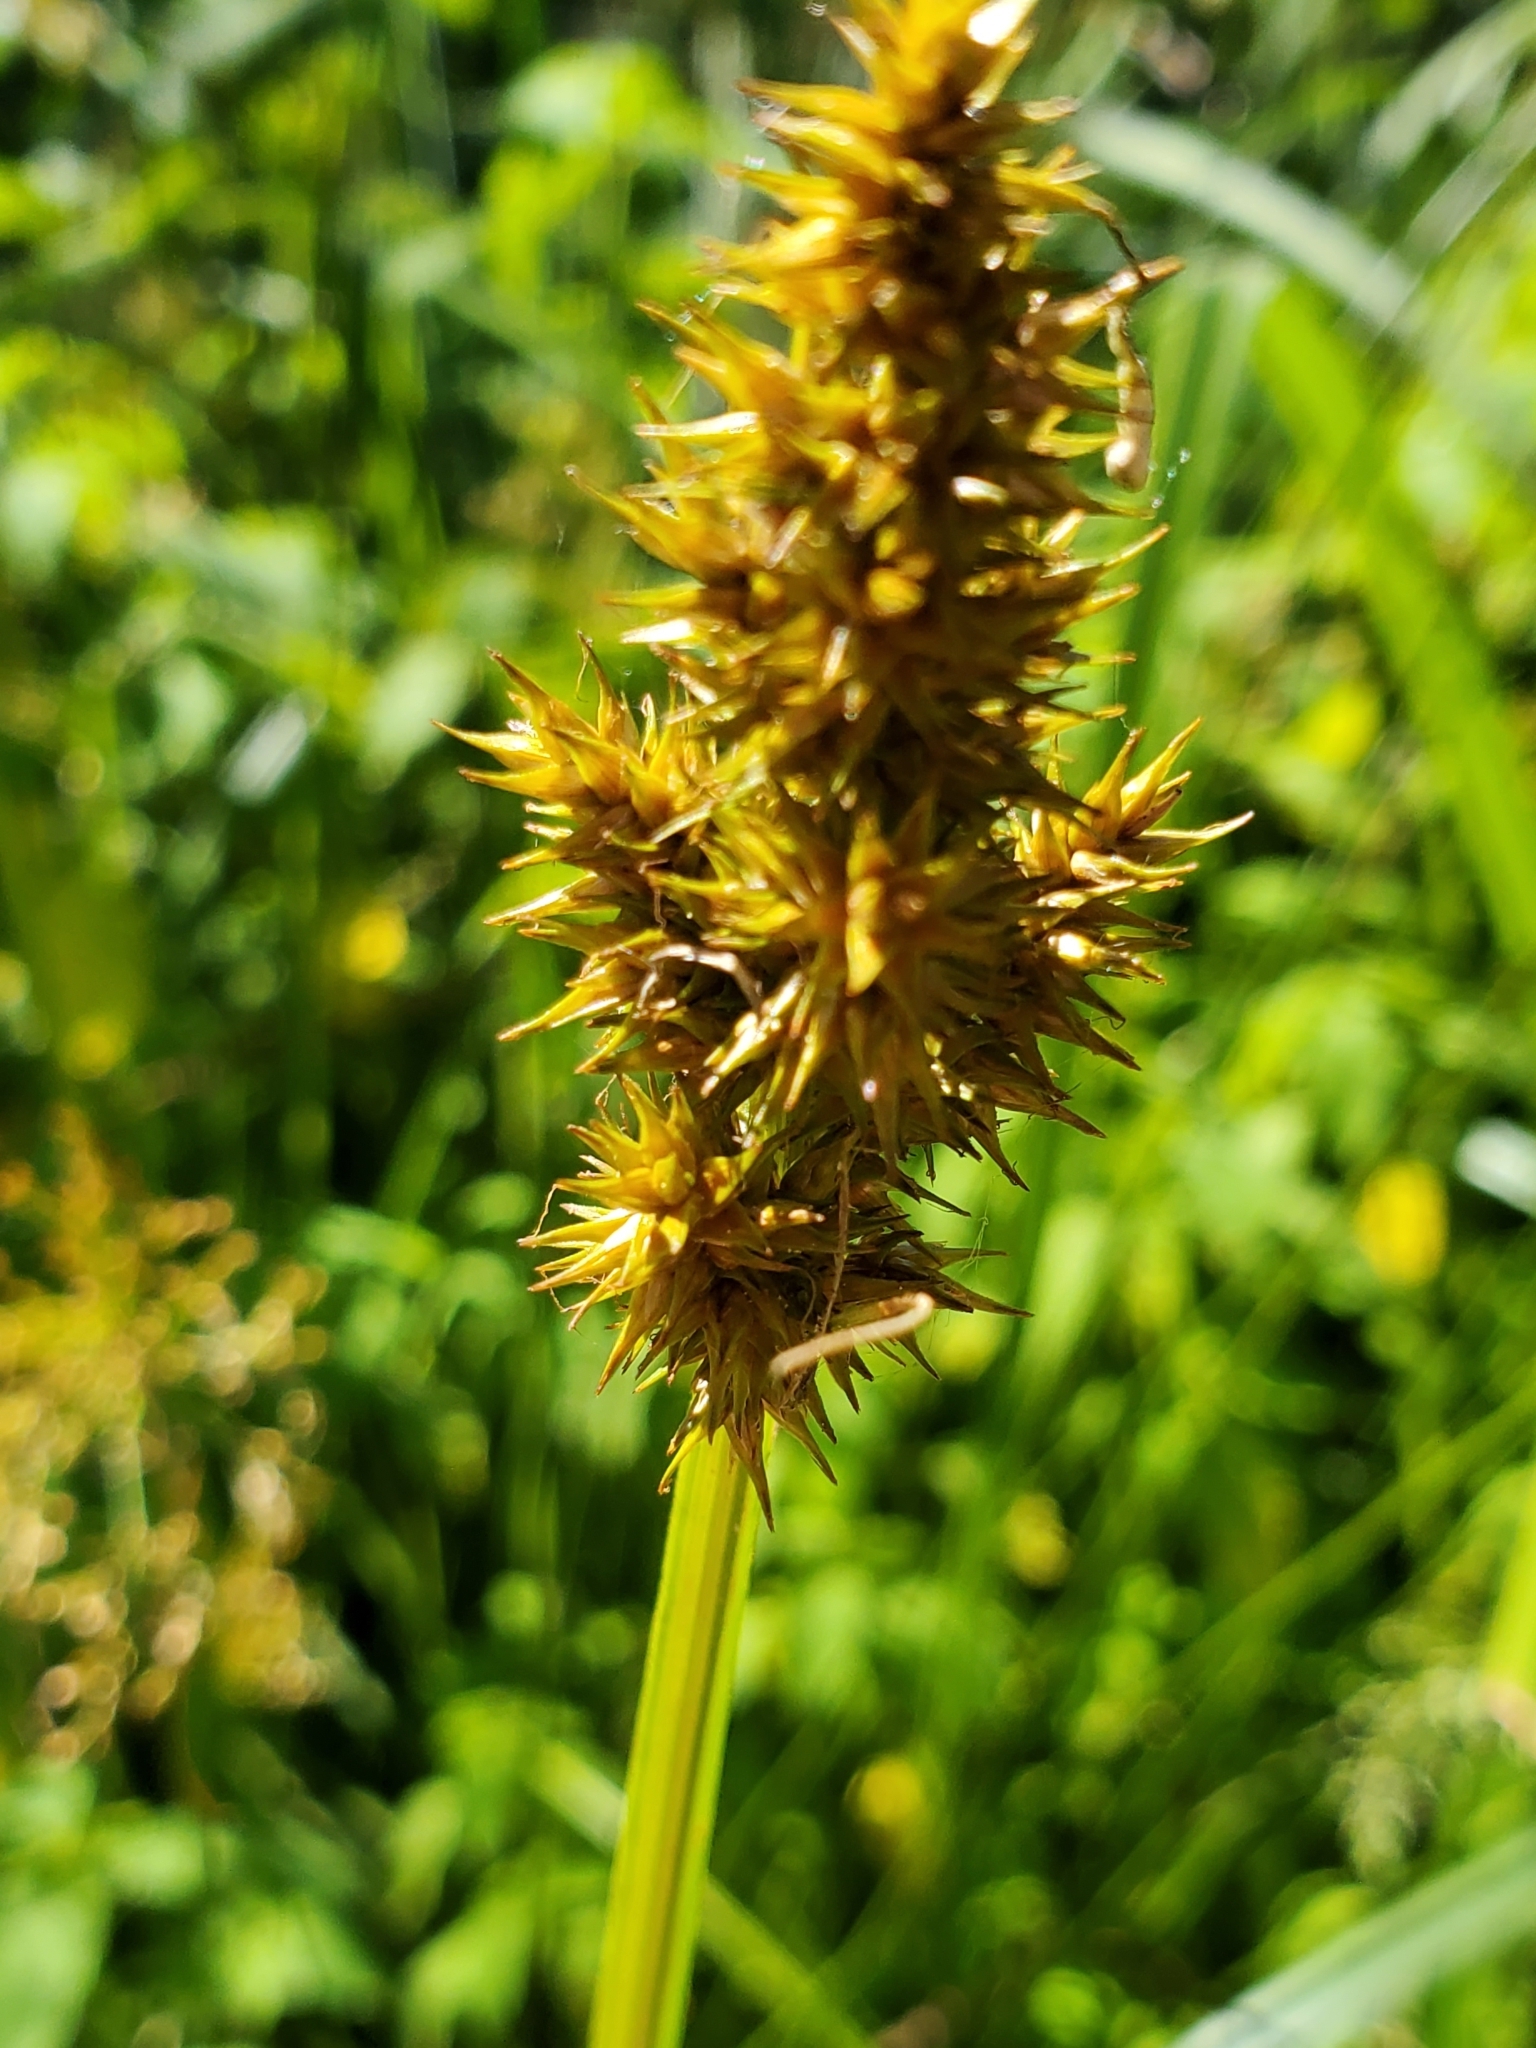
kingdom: Plantae
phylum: Tracheophyta
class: Liliopsida
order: Poales
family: Cyperaceae
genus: Carex
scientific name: Carex stipata
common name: Awl-fruited sedge
